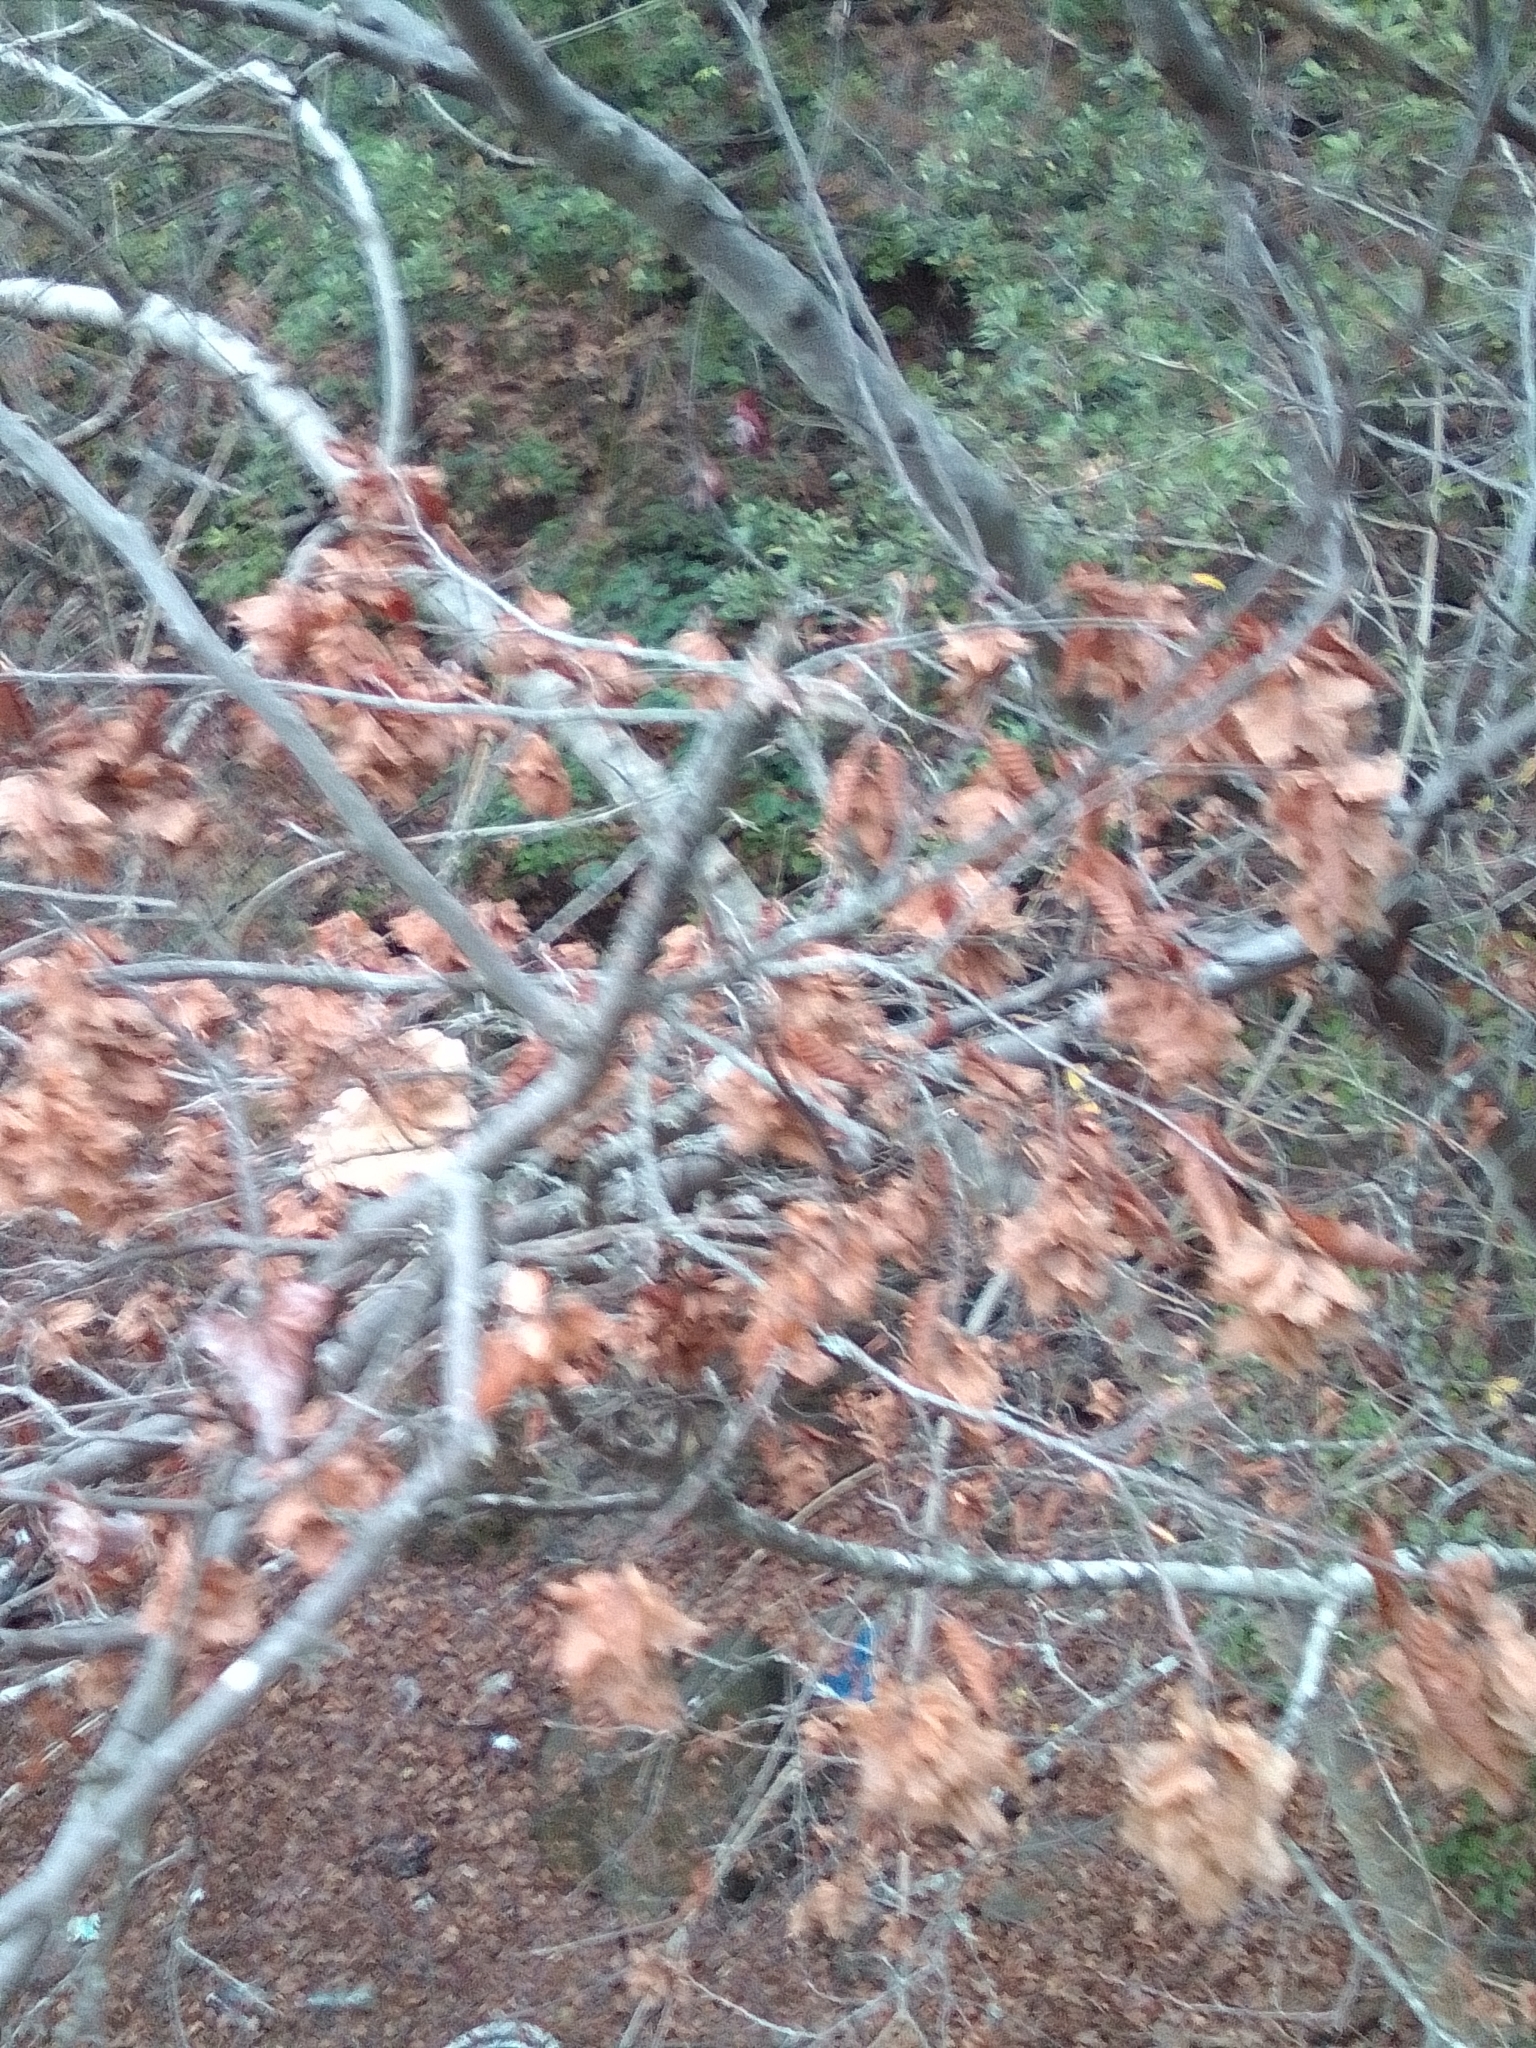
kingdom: Plantae
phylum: Tracheophyta
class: Magnoliopsida
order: Fagales
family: Betulaceae
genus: Carpinus
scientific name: Carpinus orientalis
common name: Eastern hornbeam
